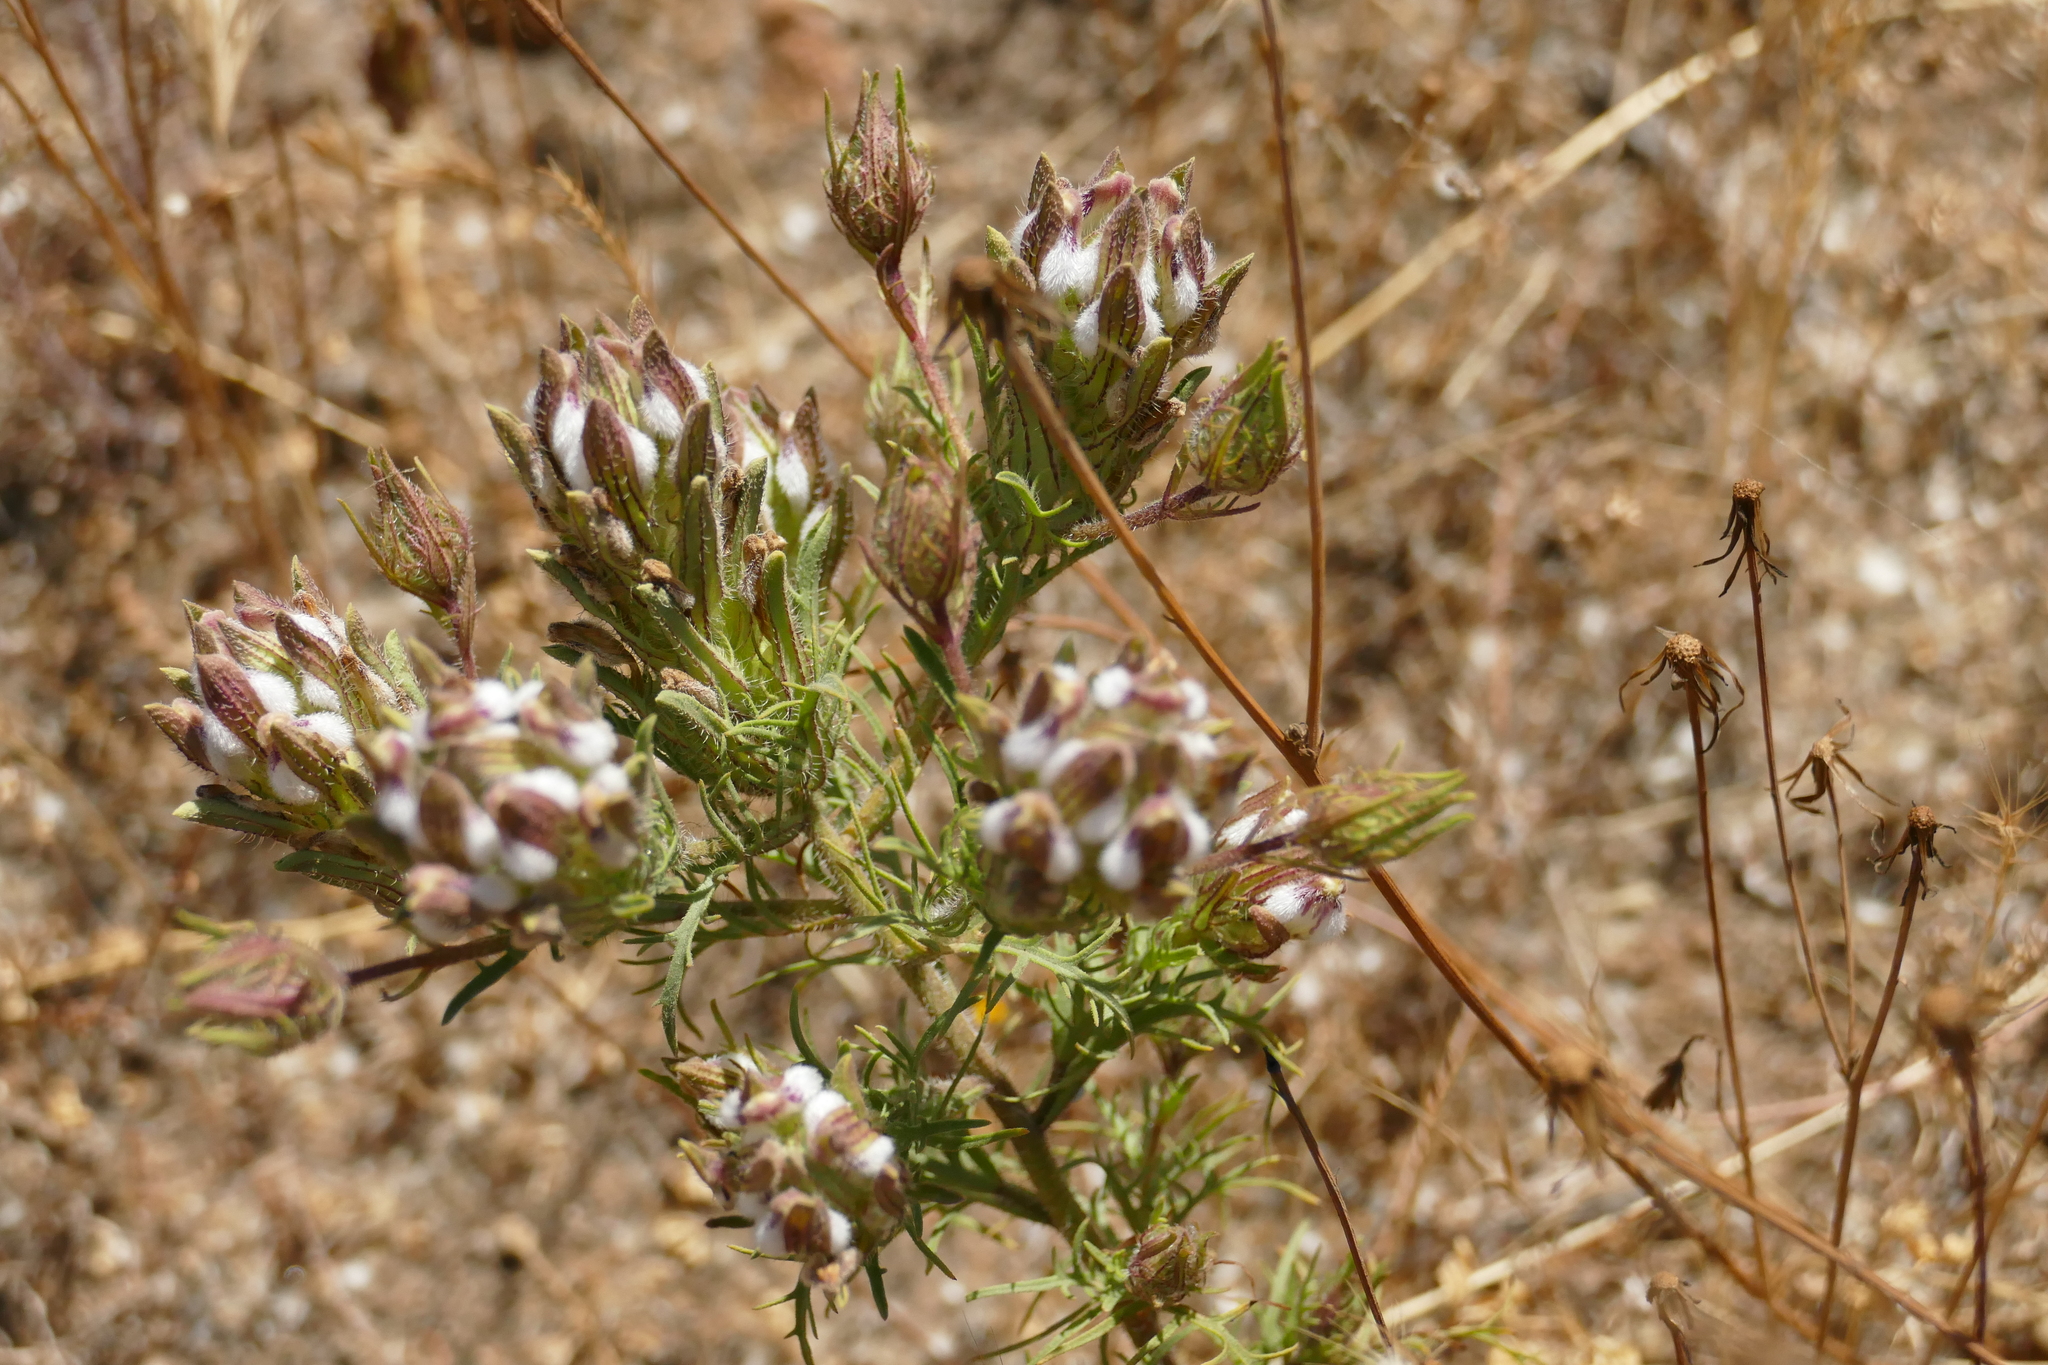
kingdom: Plantae
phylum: Tracheophyta
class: Magnoliopsida
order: Lamiales
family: Orobanchaceae
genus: Dicranostegia
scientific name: Dicranostegia orcuttiana
